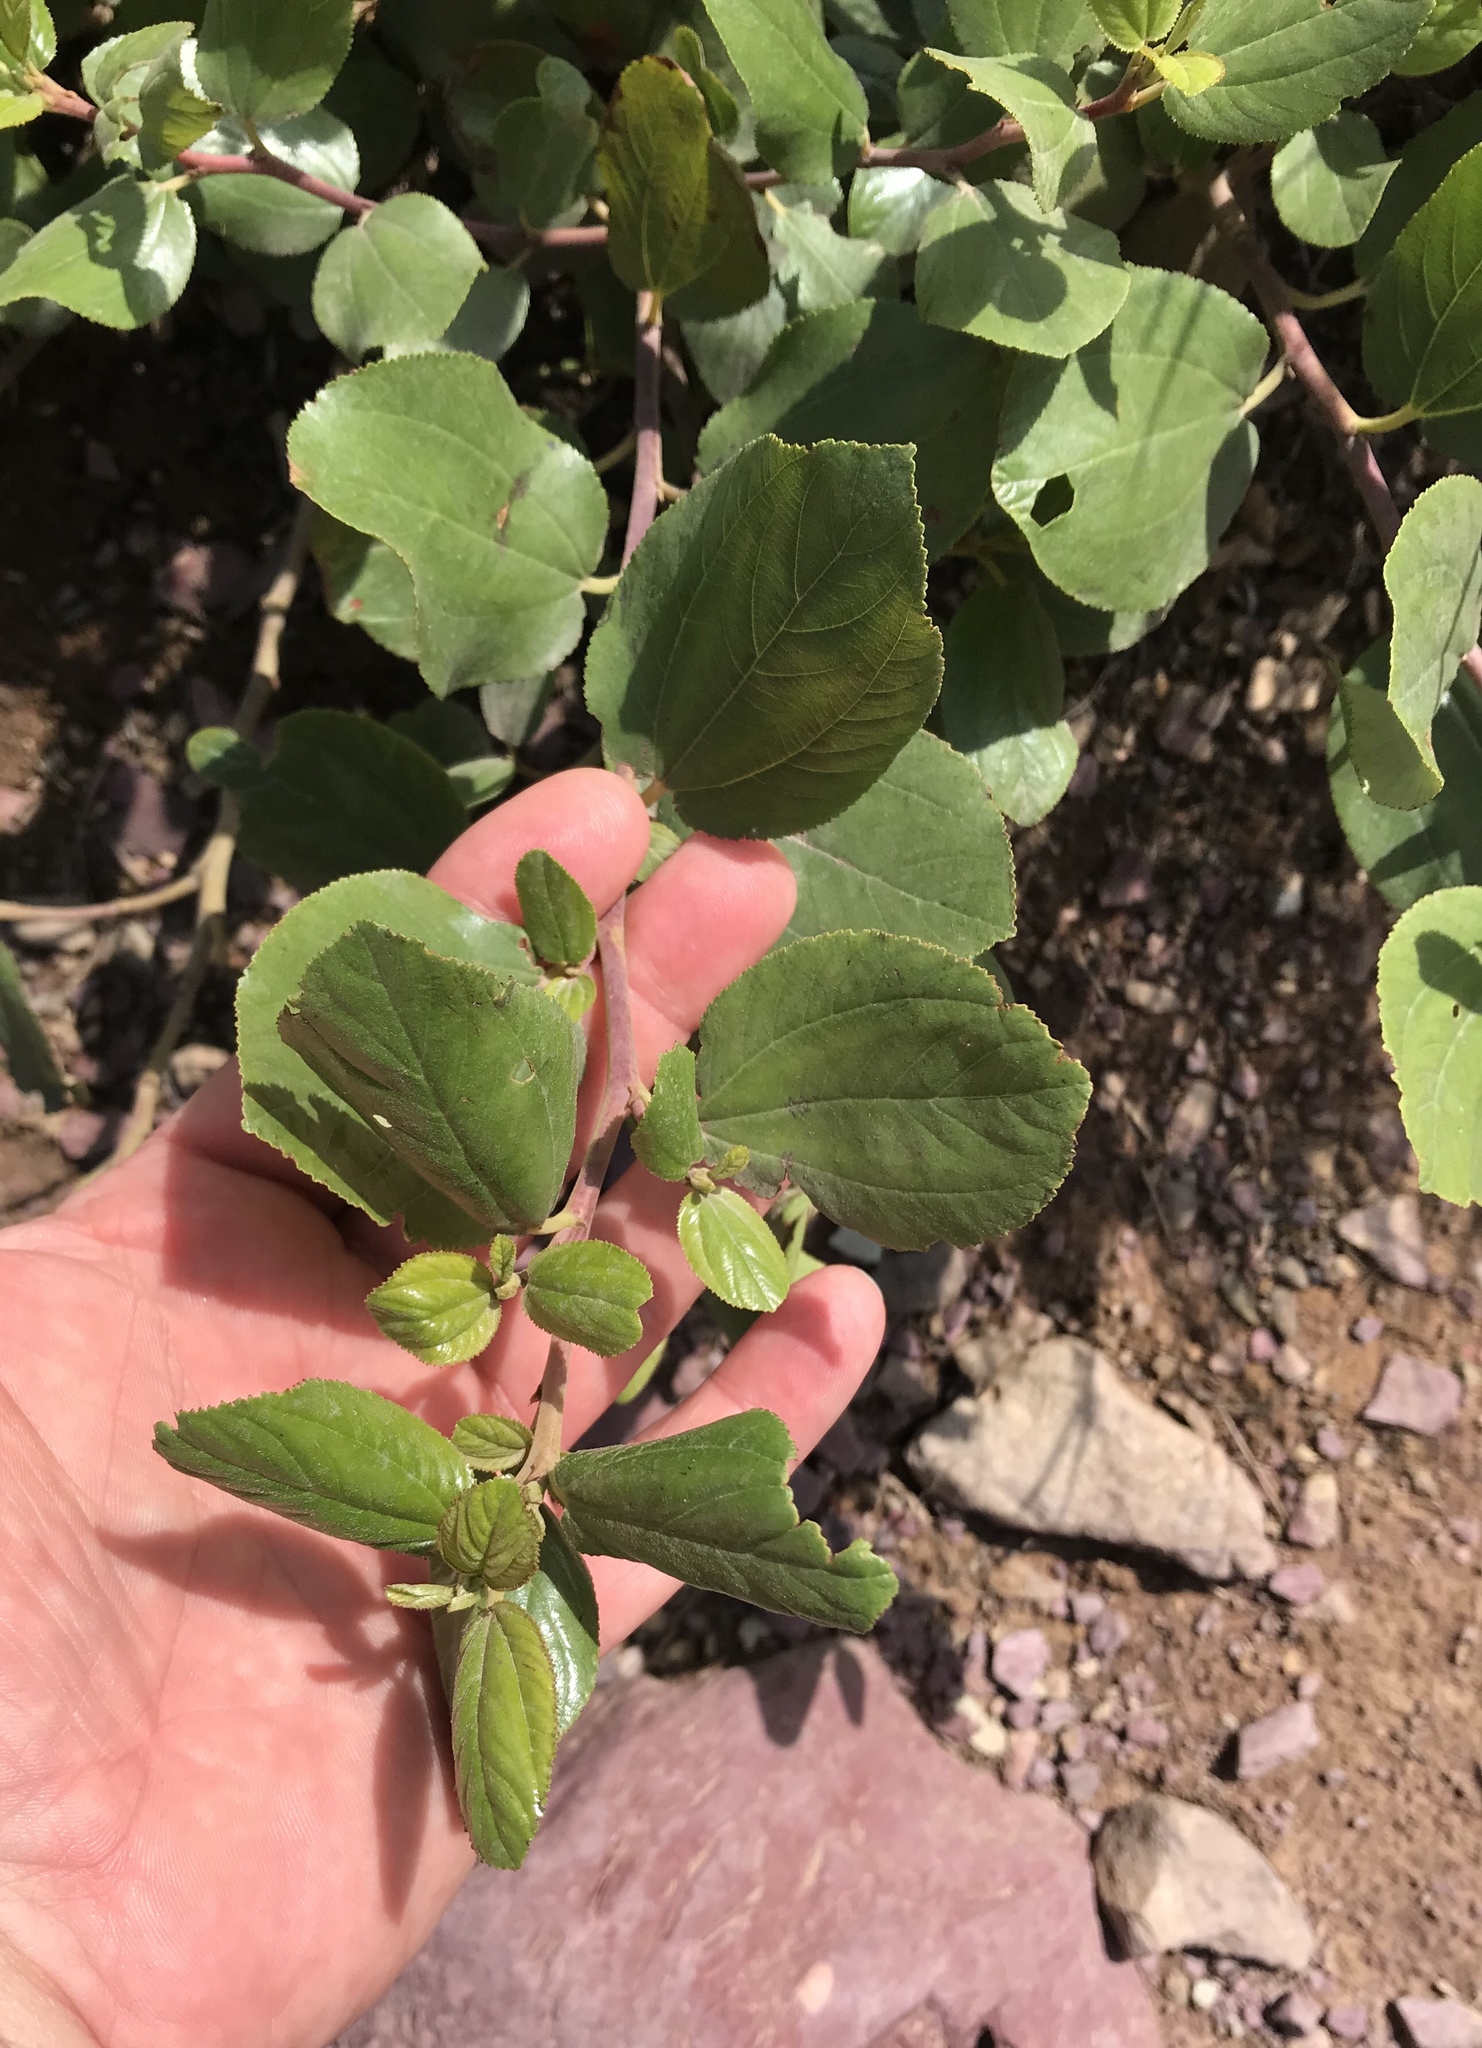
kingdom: Plantae
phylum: Tracheophyta
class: Magnoliopsida
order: Rosales
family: Rhamnaceae
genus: Ceanothus
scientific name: Ceanothus velutinus
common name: Snowbrush
